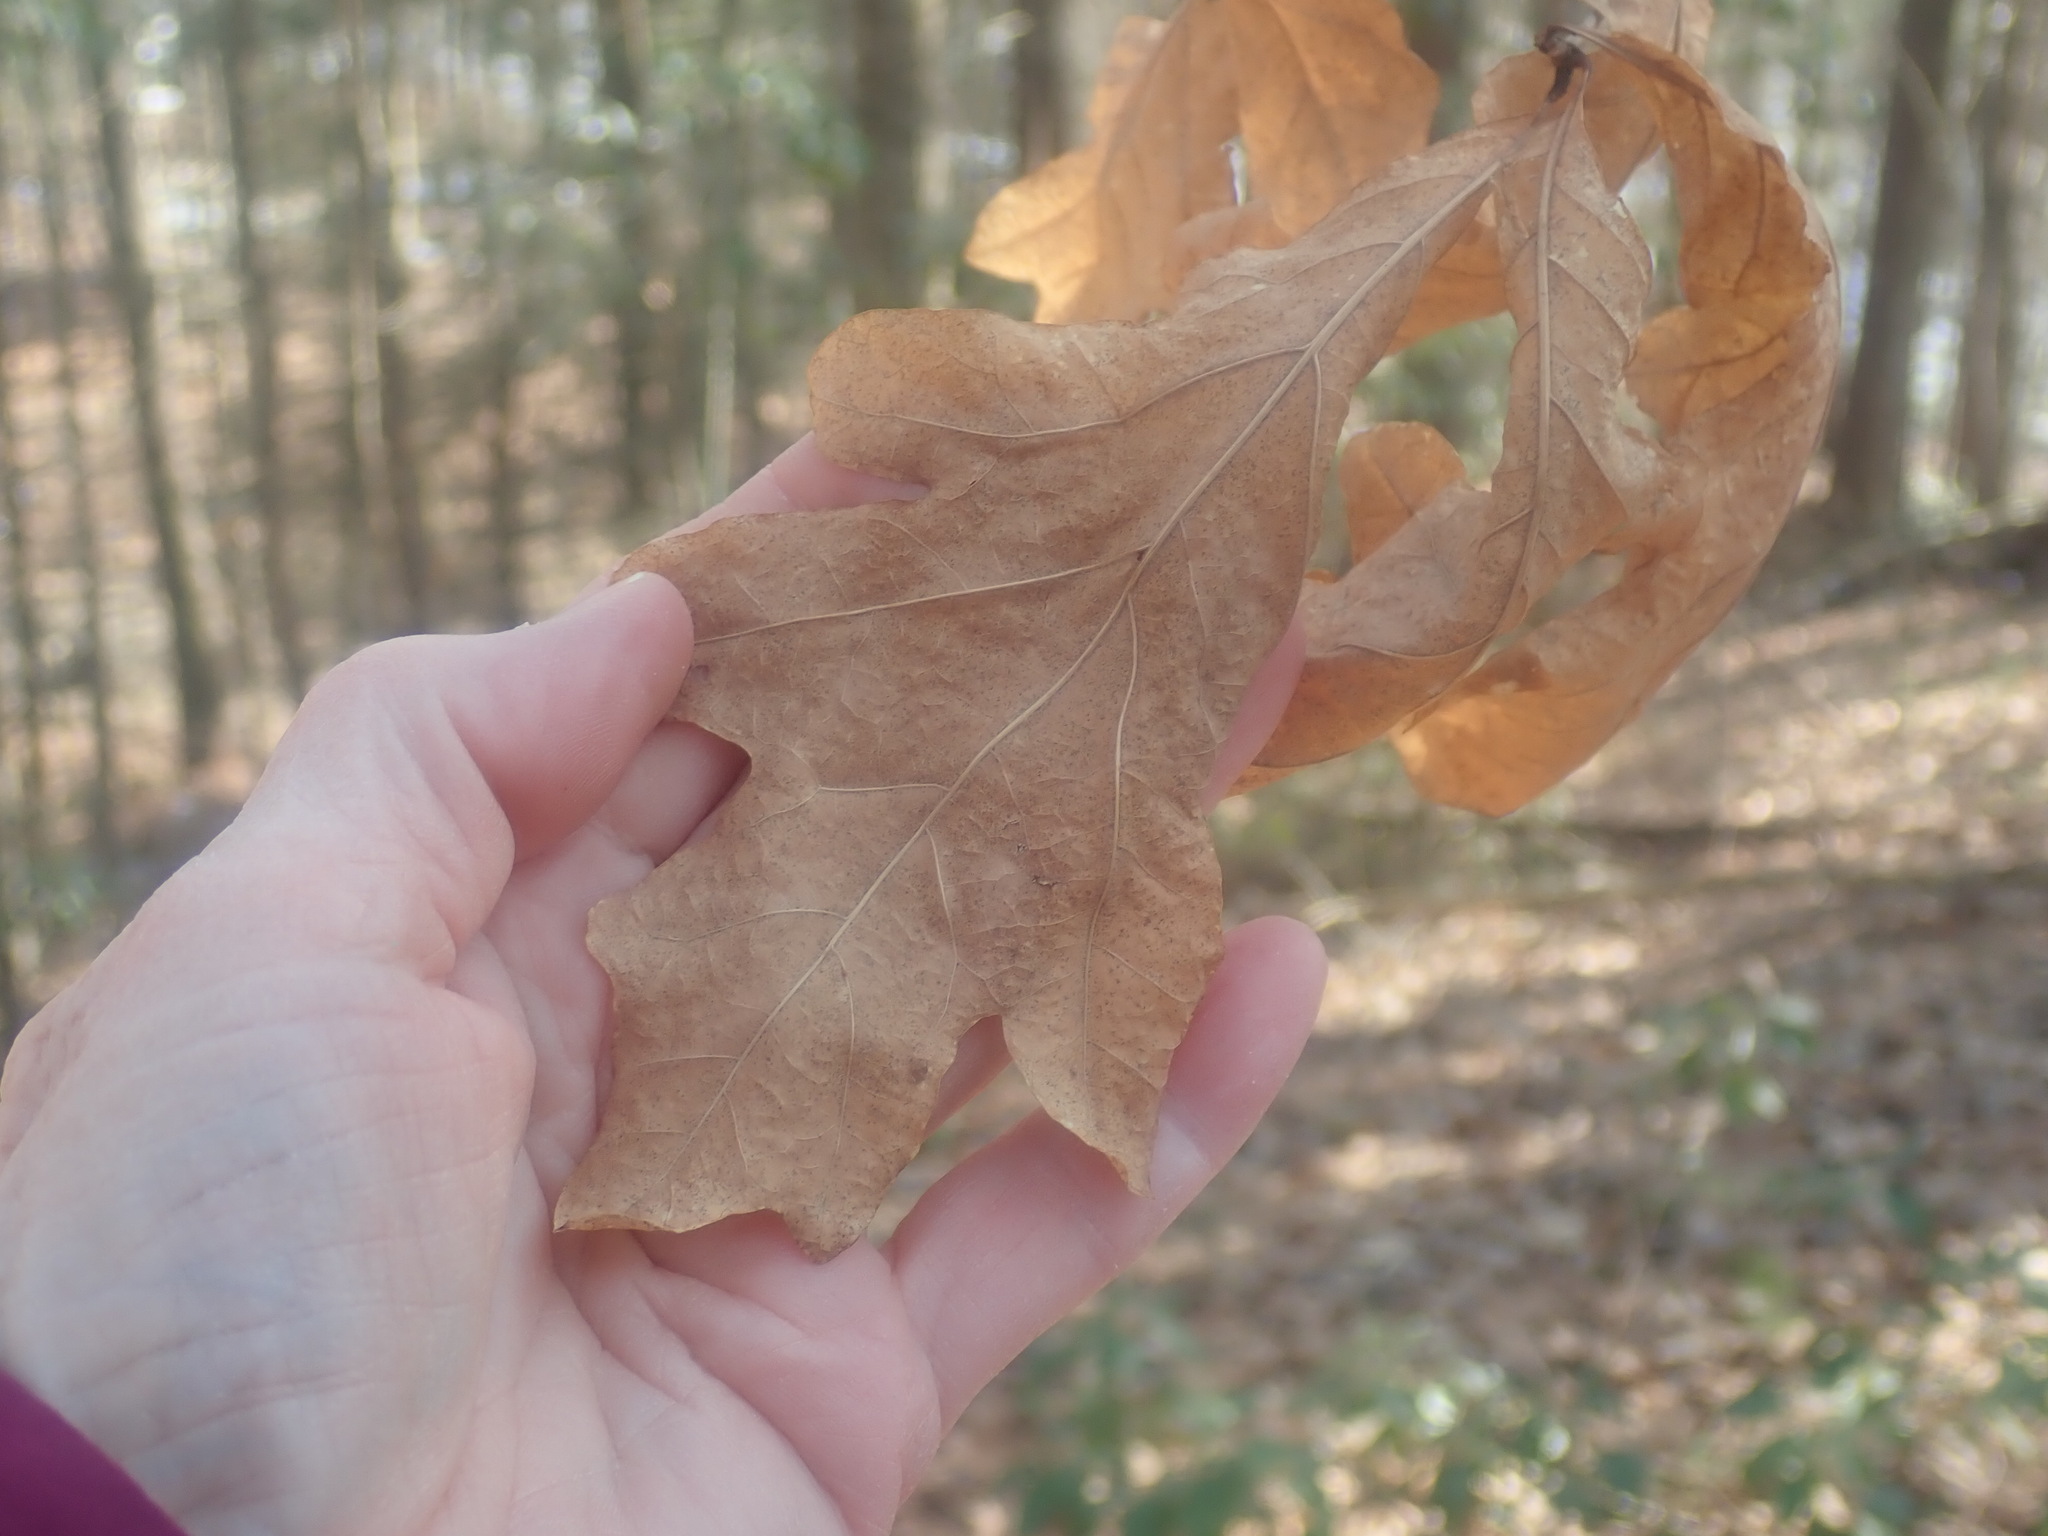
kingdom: Plantae
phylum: Tracheophyta
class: Magnoliopsida
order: Fagales
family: Fagaceae
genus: Quercus
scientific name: Quercus alba
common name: White oak
